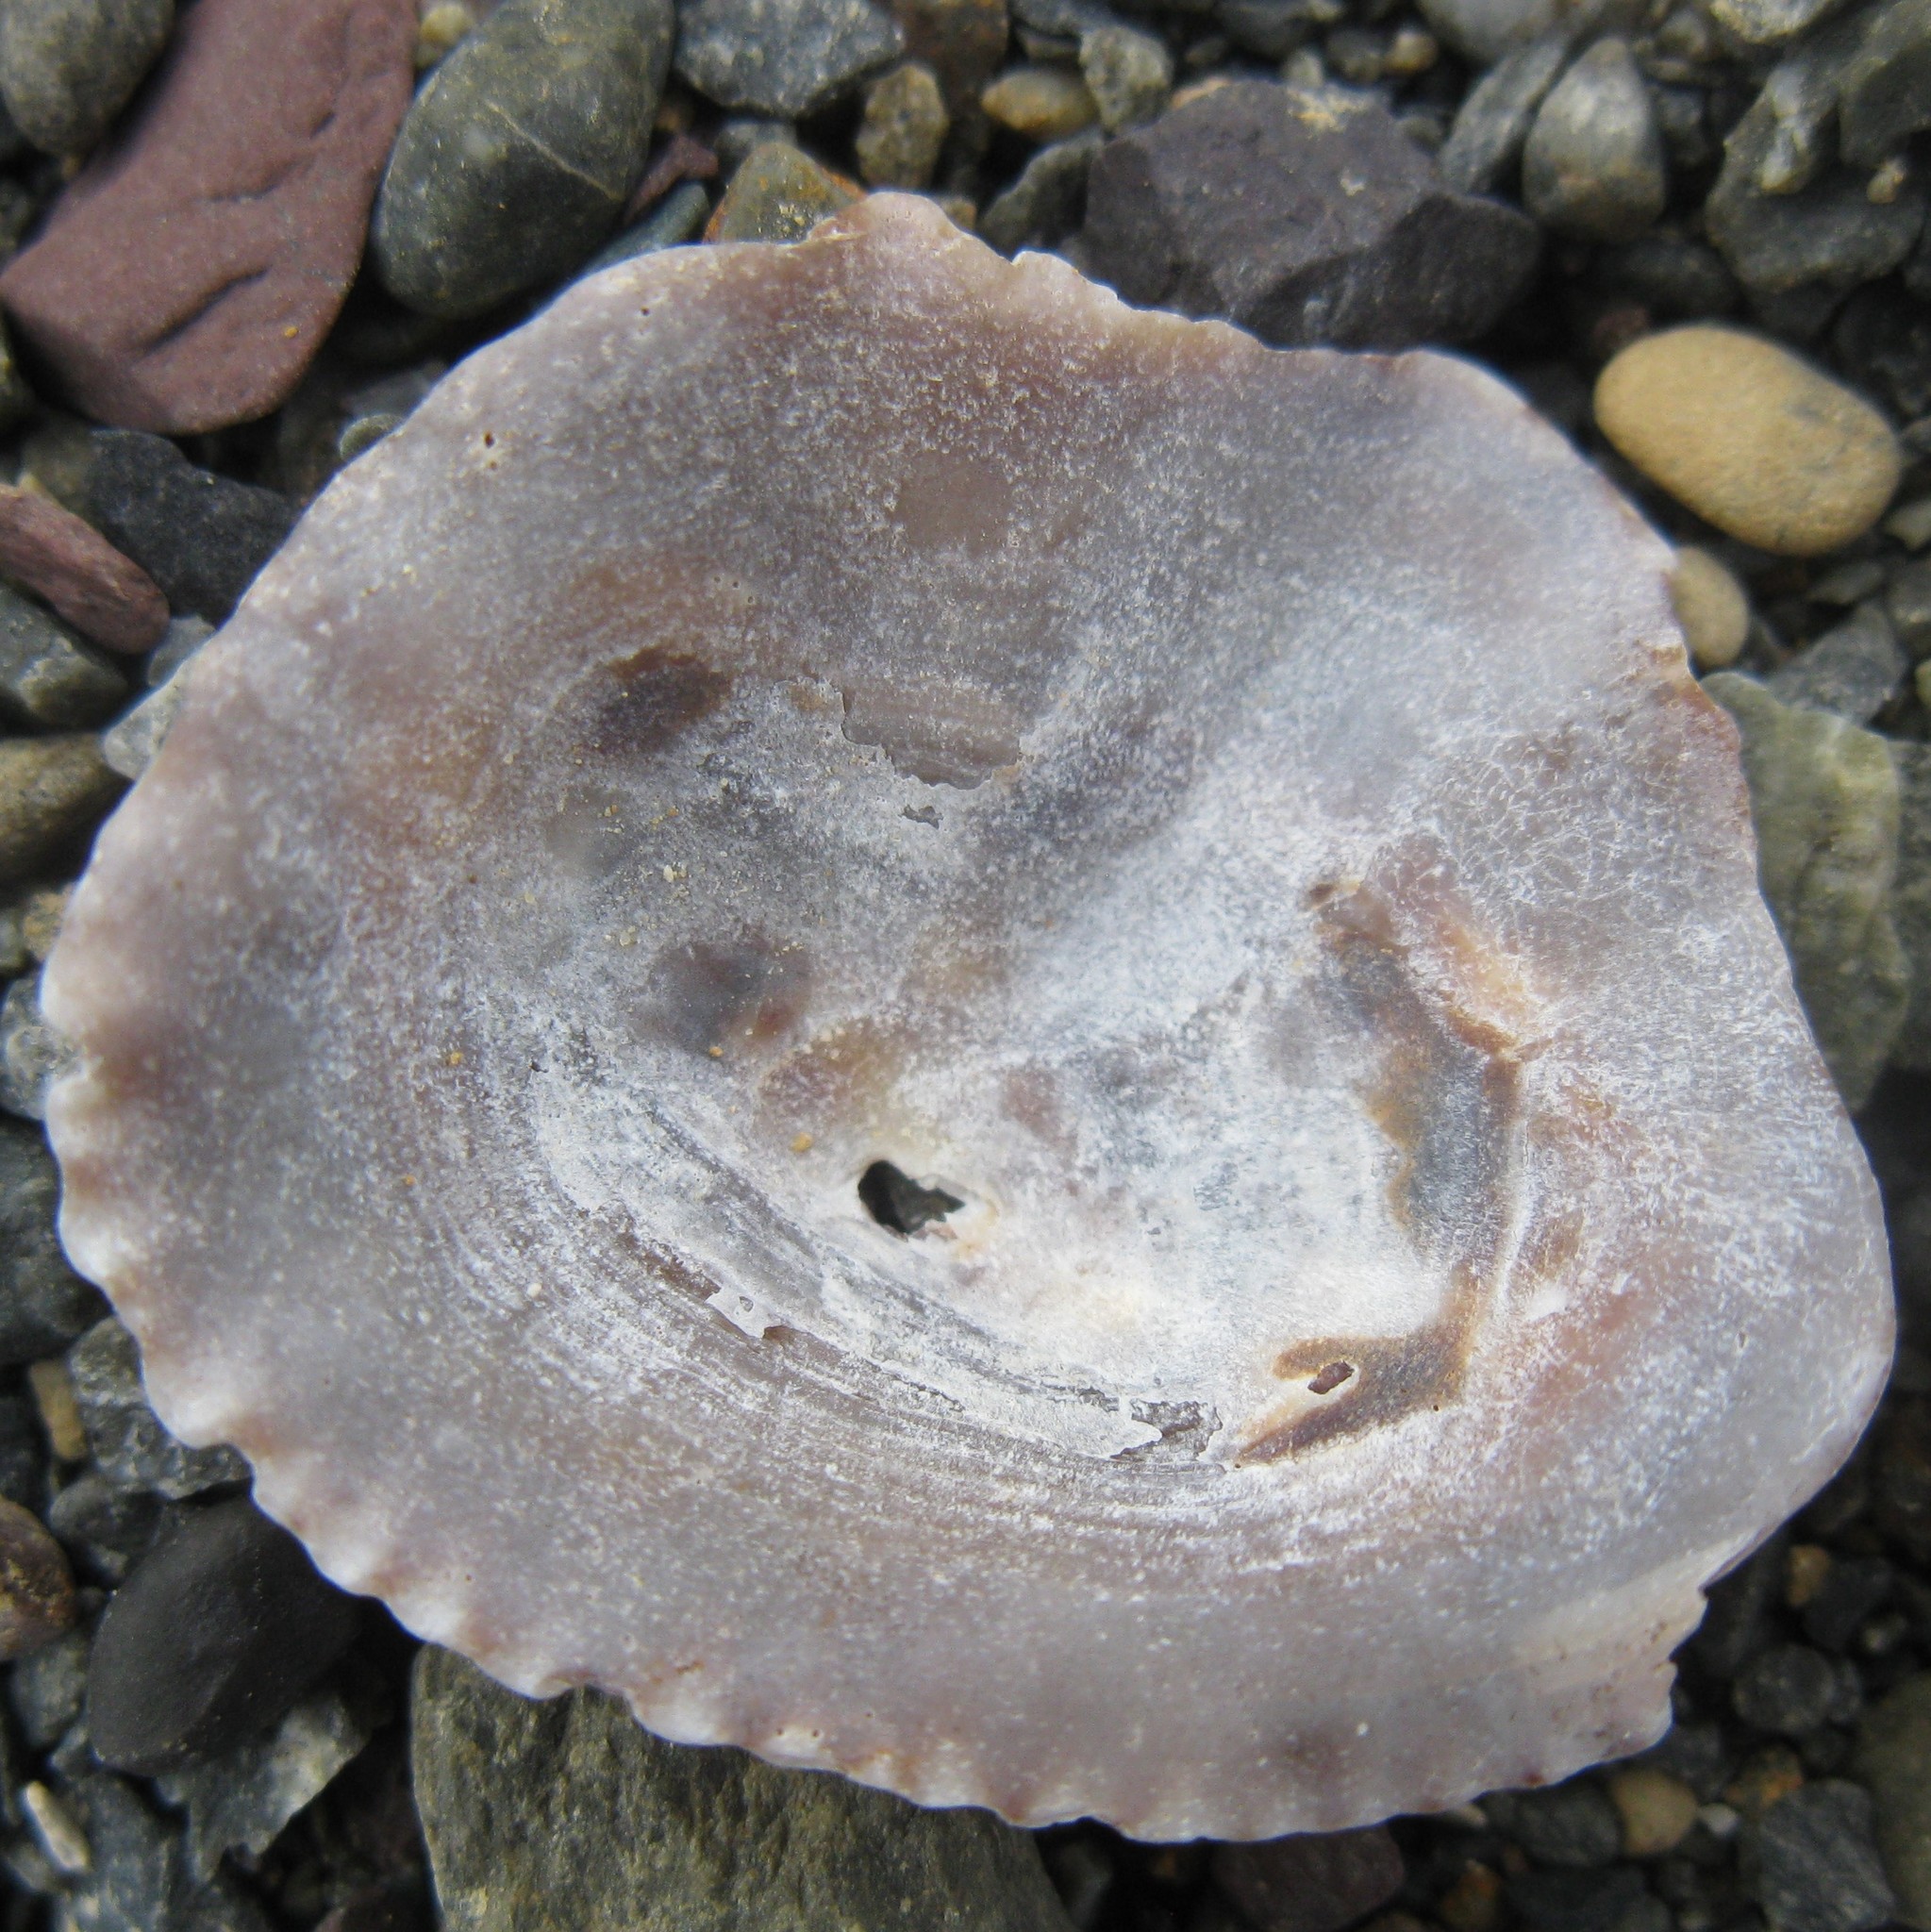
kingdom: Animalia
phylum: Mollusca
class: Gastropoda
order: Siphonariida
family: Siphonariidae
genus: Siphonaria
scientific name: Siphonaria australis
